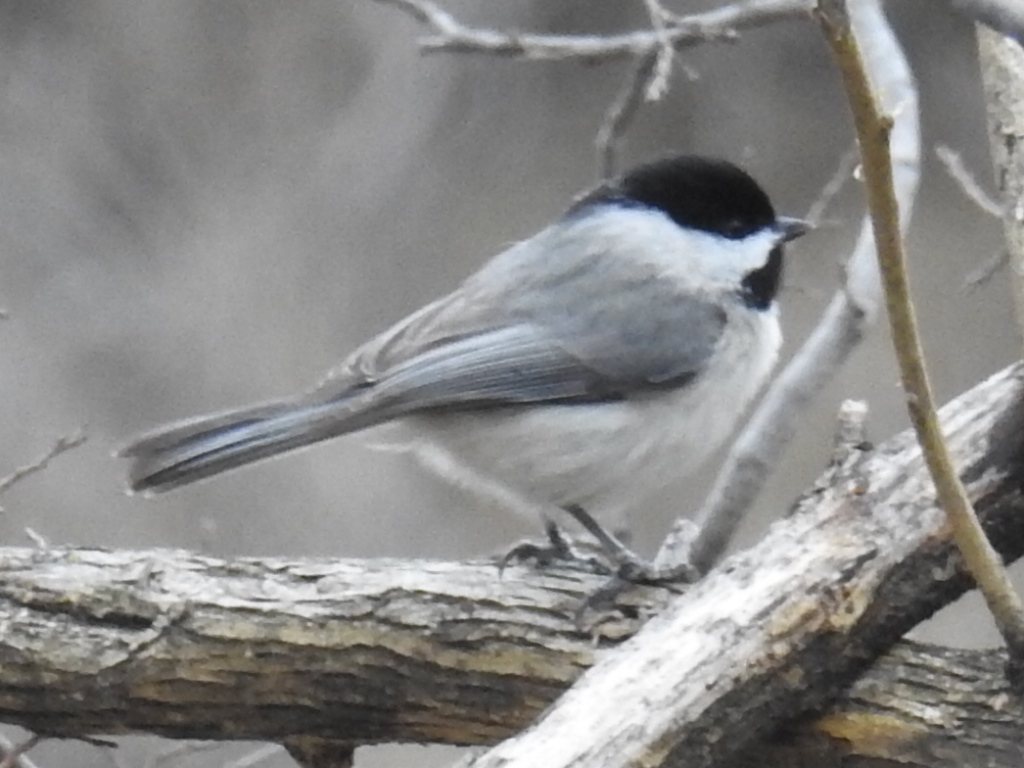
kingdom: Animalia
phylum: Chordata
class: Aves
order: Passeriformes
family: Paridae
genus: Poecile
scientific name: Poecile carolinensis
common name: Carolina chickadee
